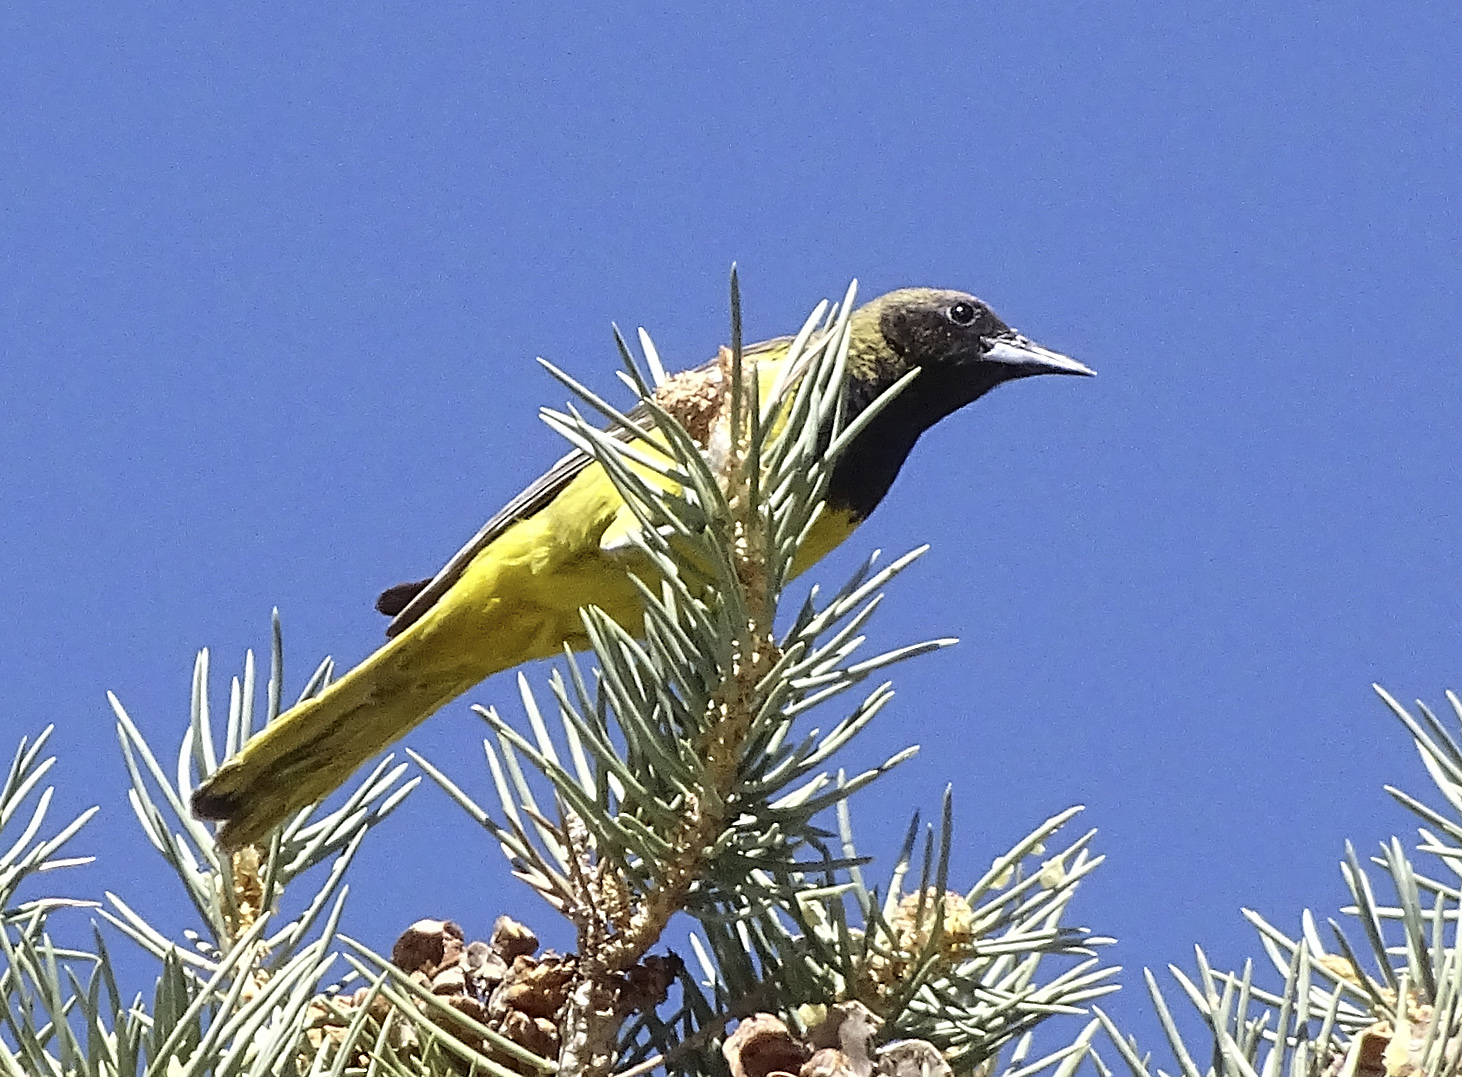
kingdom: Animalia
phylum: Chordata
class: Aves
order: Passeriformes
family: Icteridae
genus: Icterus
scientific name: Icterus parisorum
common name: Scott's oriole
